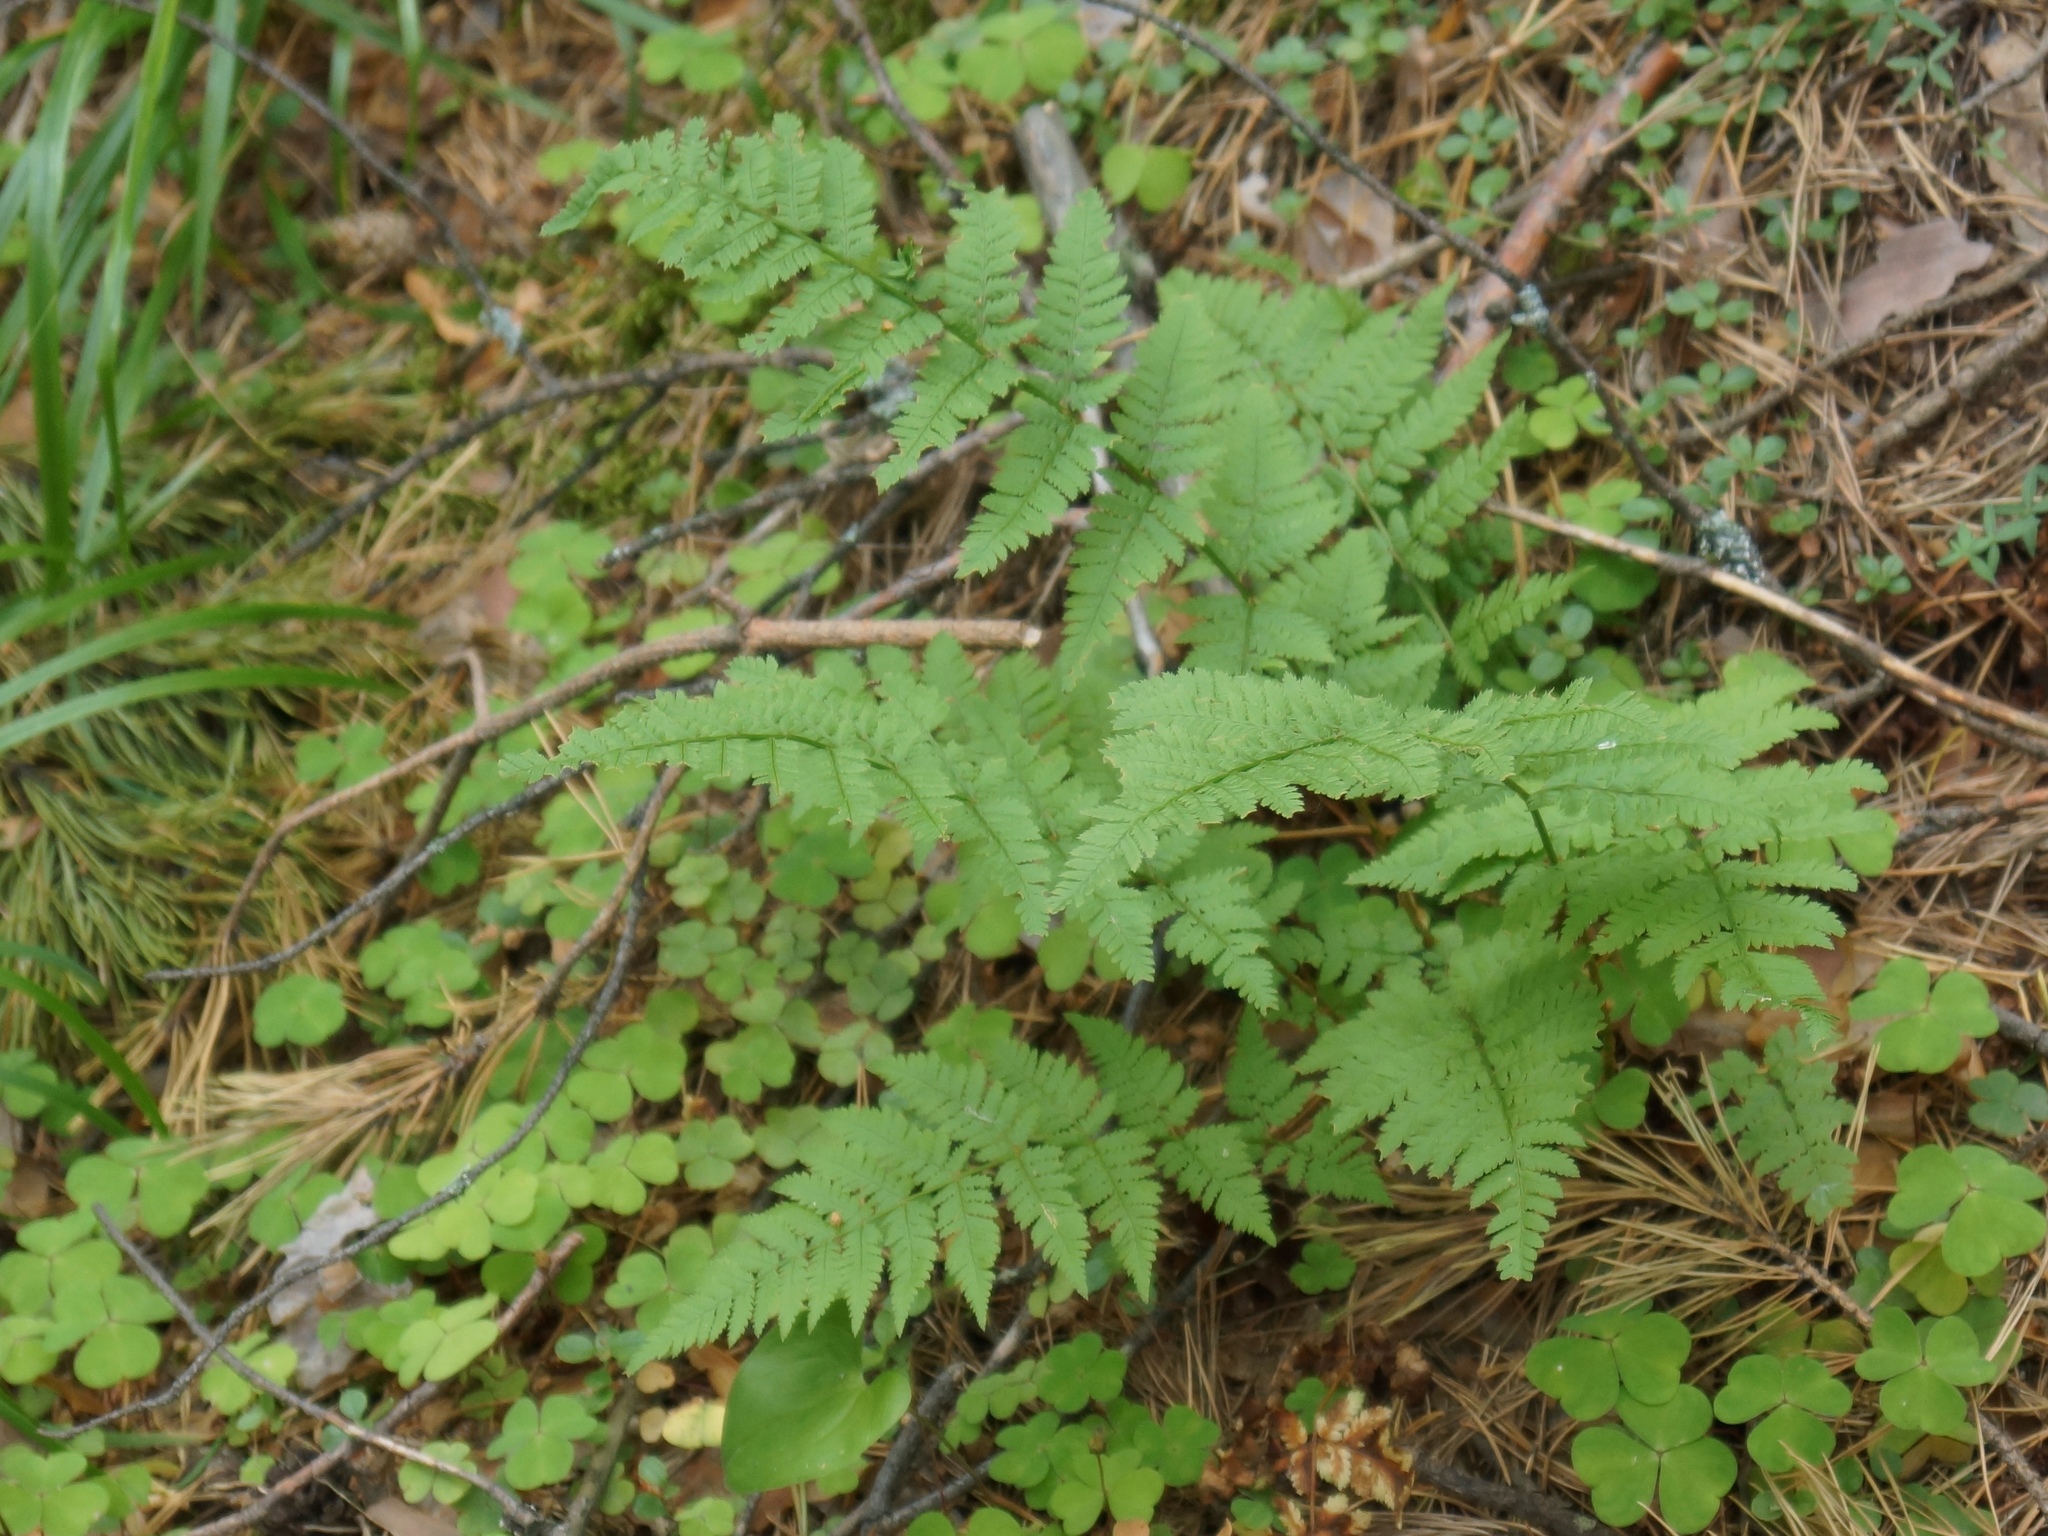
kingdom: Plantae
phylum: Tracheophyta
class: Polypodiopsida
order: Polypodiales
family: Dryopteridaceae
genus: Dryopteris
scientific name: Dryopteris carthusiana
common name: Narrow buckler-fern
